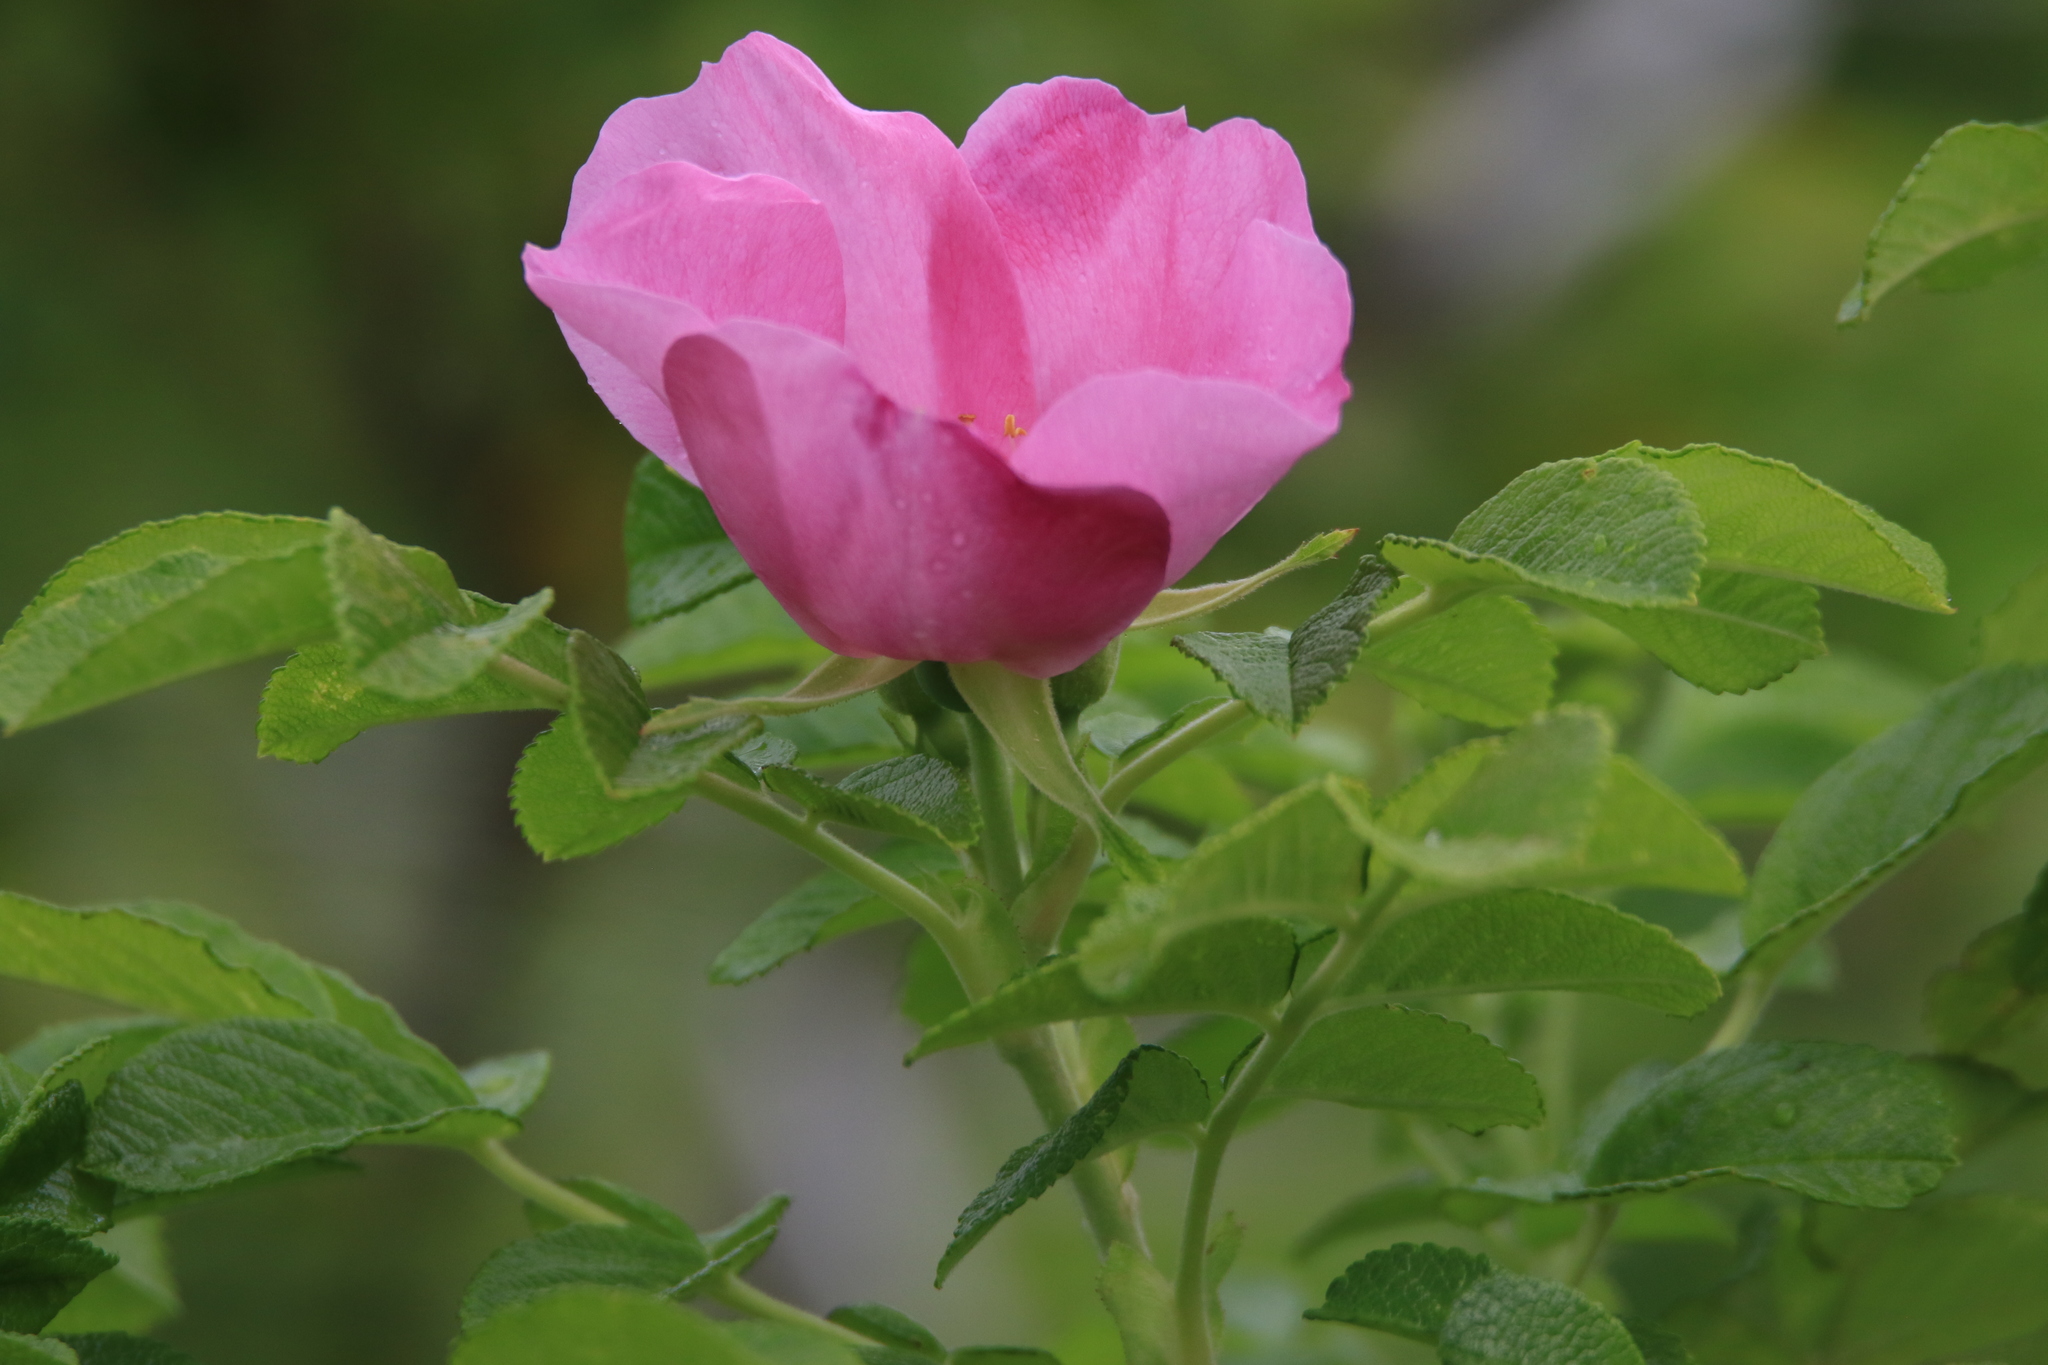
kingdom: Plantae
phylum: Tracheophyta
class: Magnoliopsida
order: Rosales
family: Rosaceae
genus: Rosa
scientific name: Rosa rugosa
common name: Japanese rose
